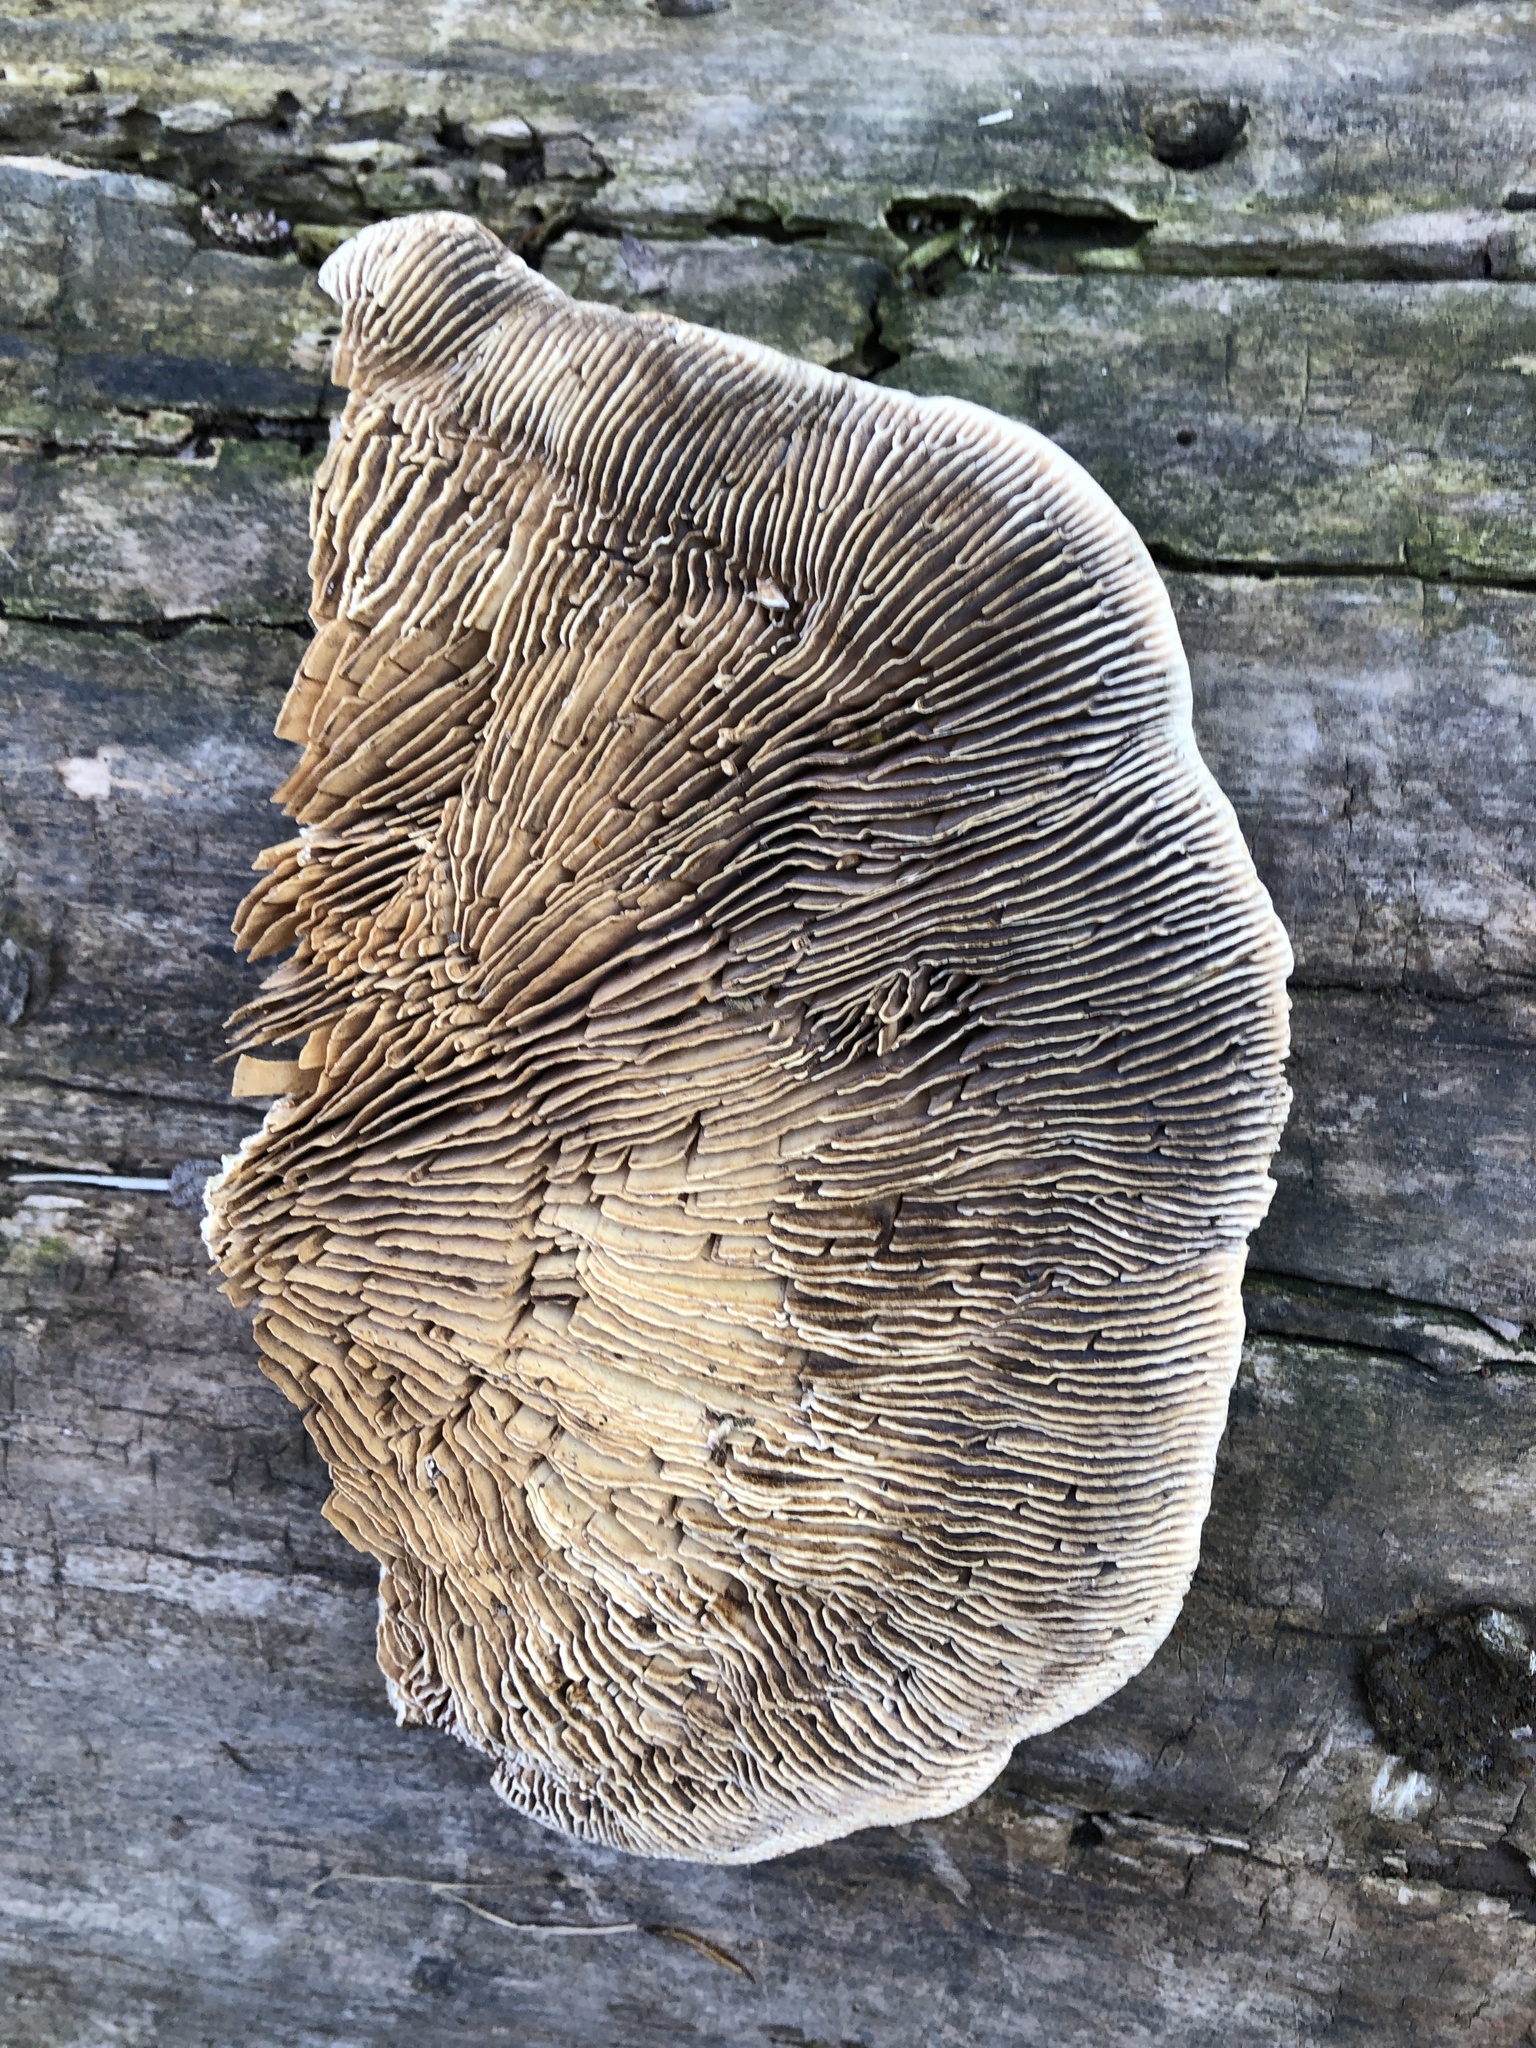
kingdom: Fungi
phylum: Basidiomycota
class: Agaricomycetes
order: Polyporales
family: Polyporaceae
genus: Cellulariella
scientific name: Cellulariella warnieri
